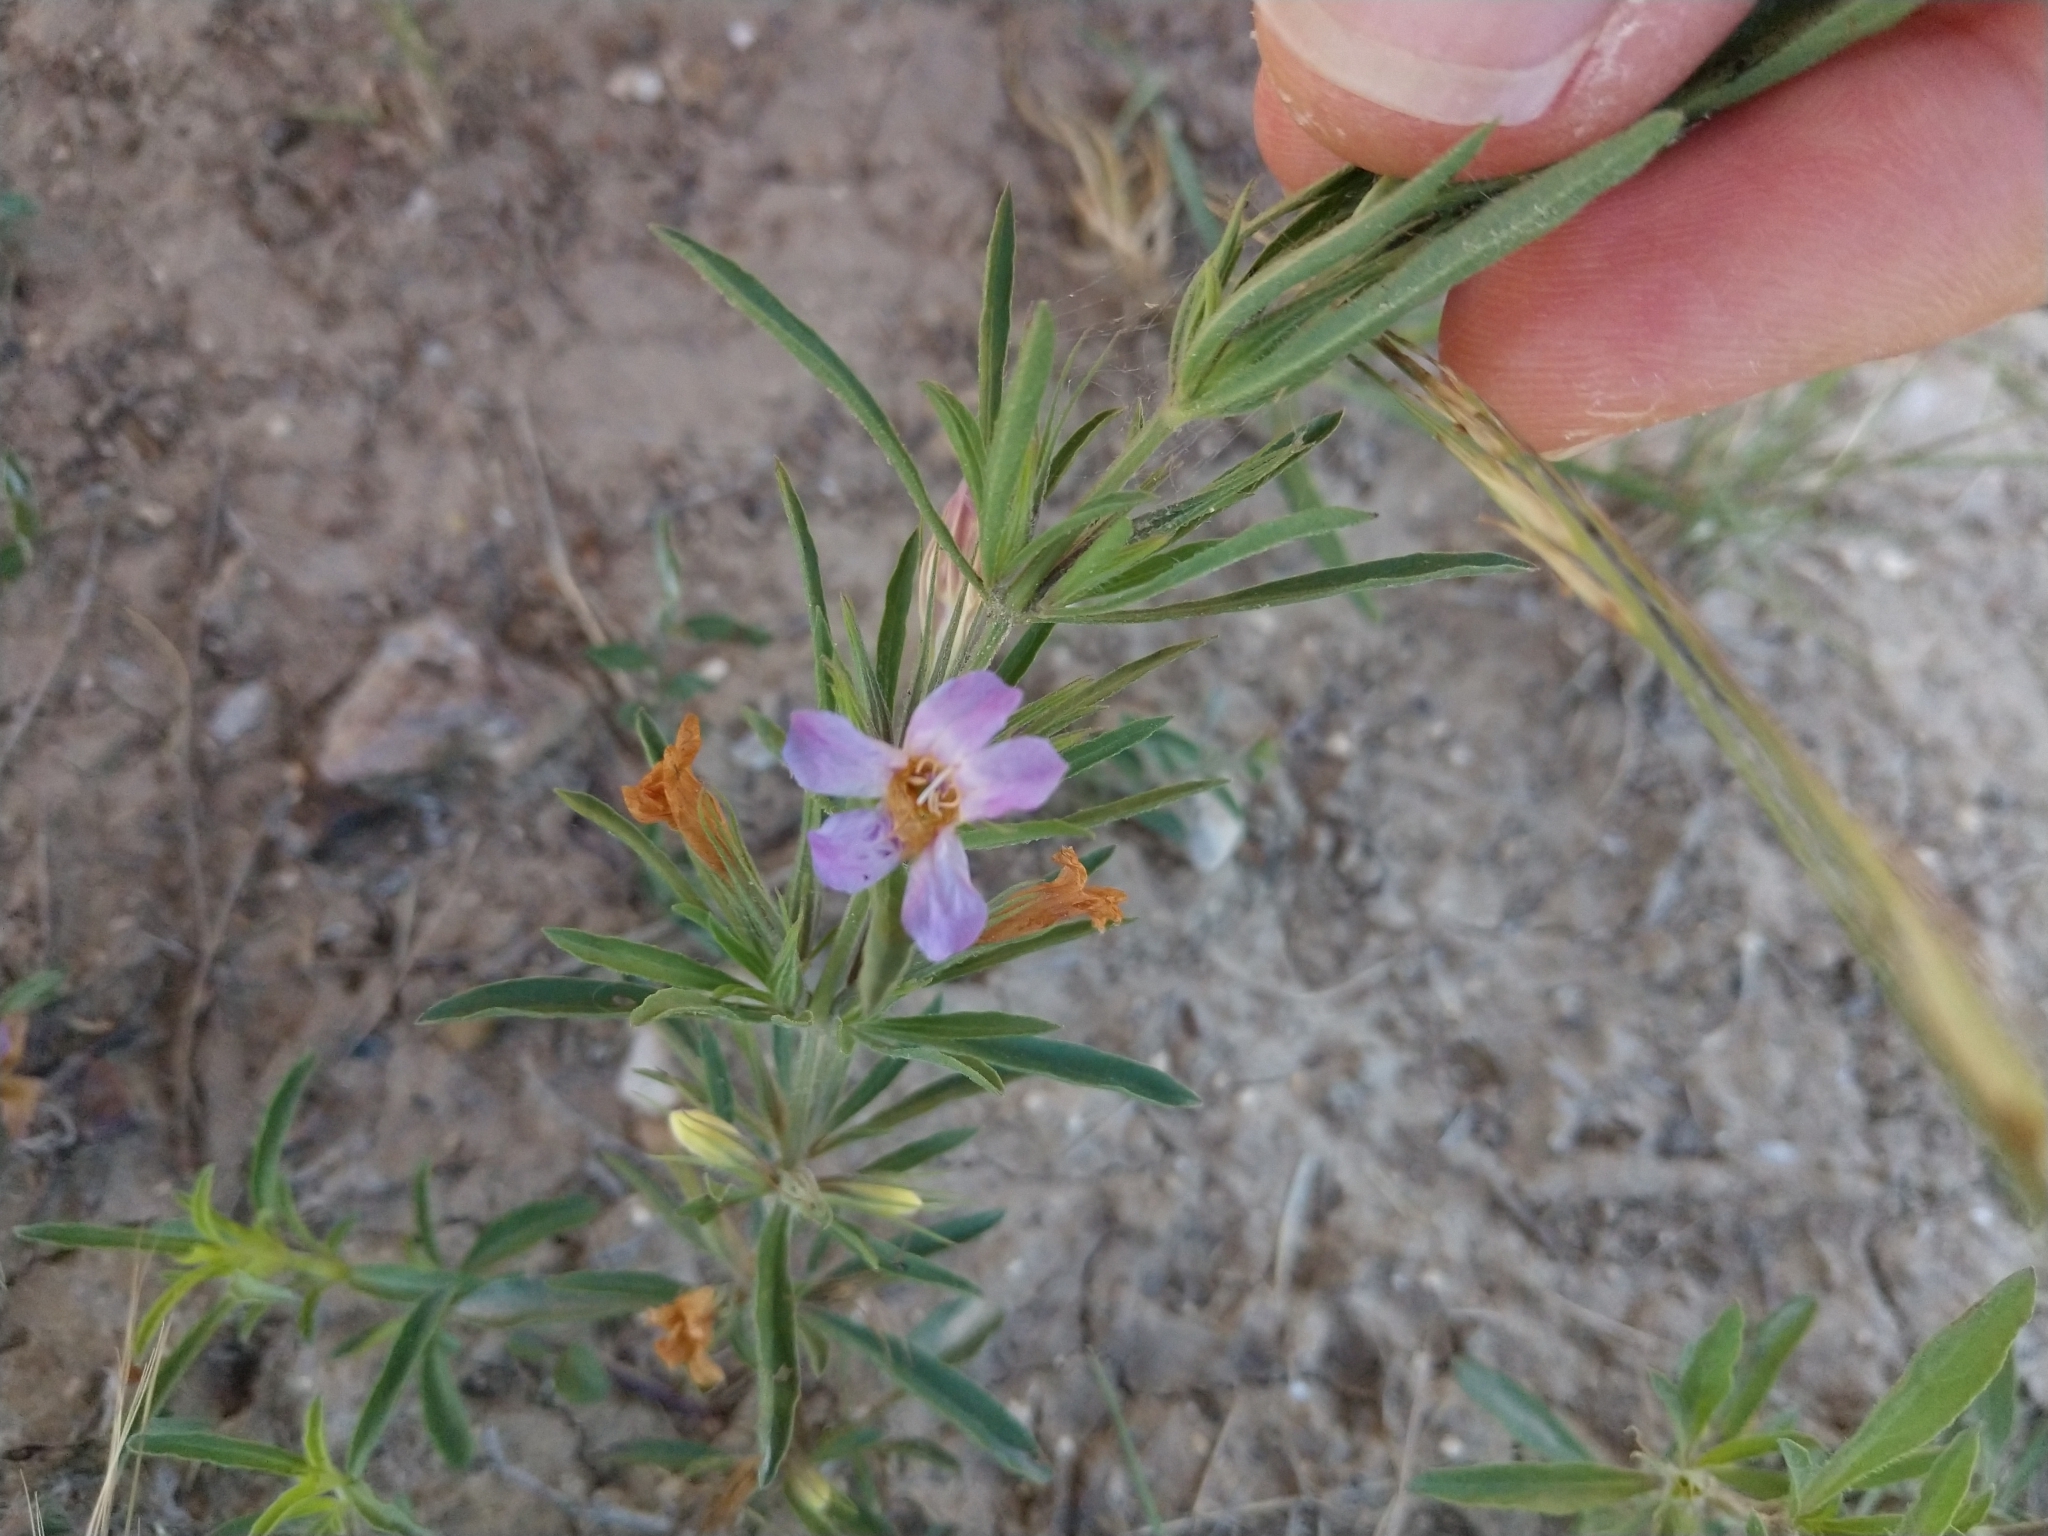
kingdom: Plantae
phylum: Tracheophyta
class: Magnoliopsida
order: Lamiales
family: Acanthaceae
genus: Dyschoriste
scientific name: Dyschoriste linearis
